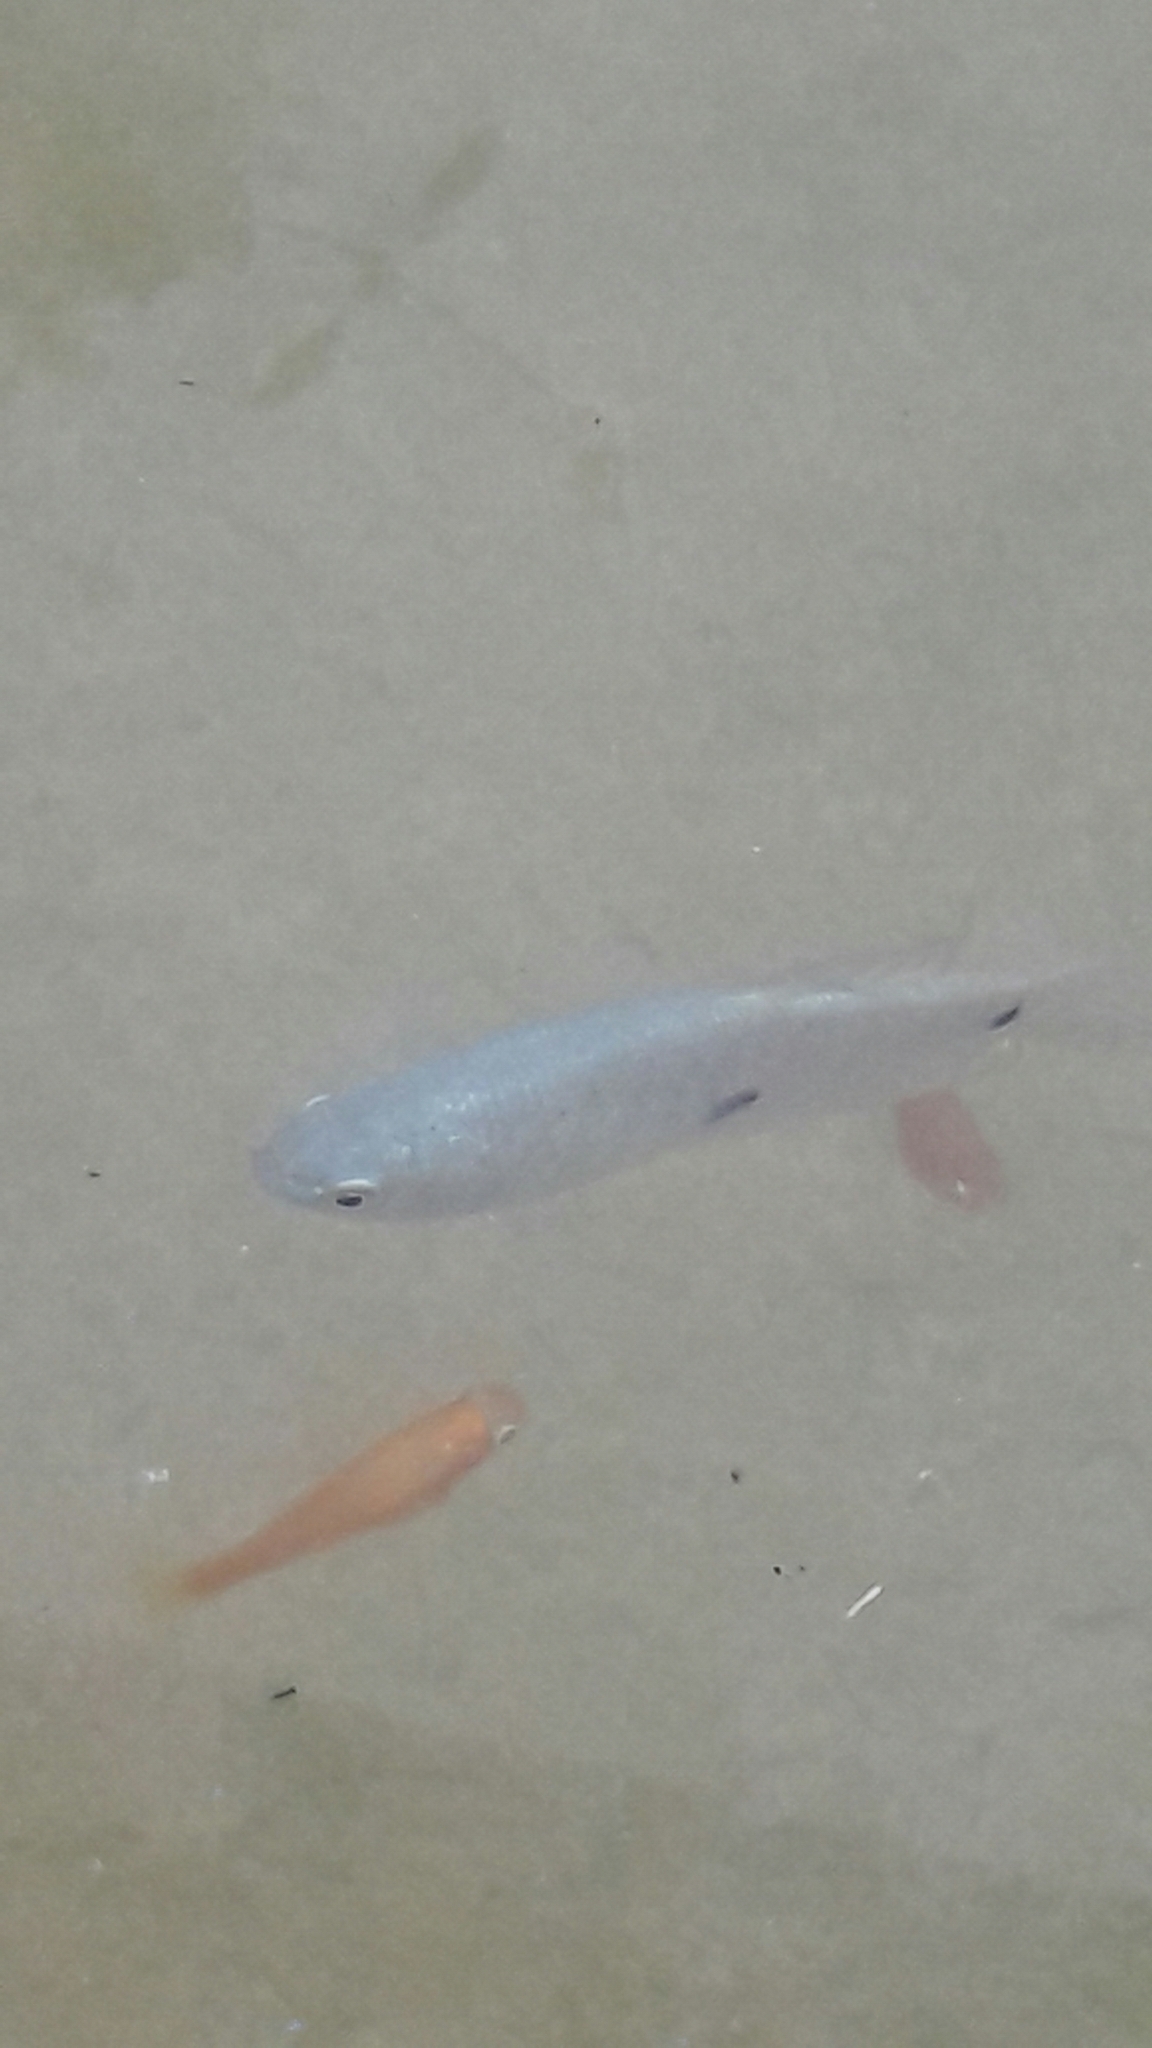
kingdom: Animalia
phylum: Chordata
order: Perciformes
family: Osphronemidae
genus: Trichopodus
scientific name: Trichopodus trichopterus
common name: Blue gourami
